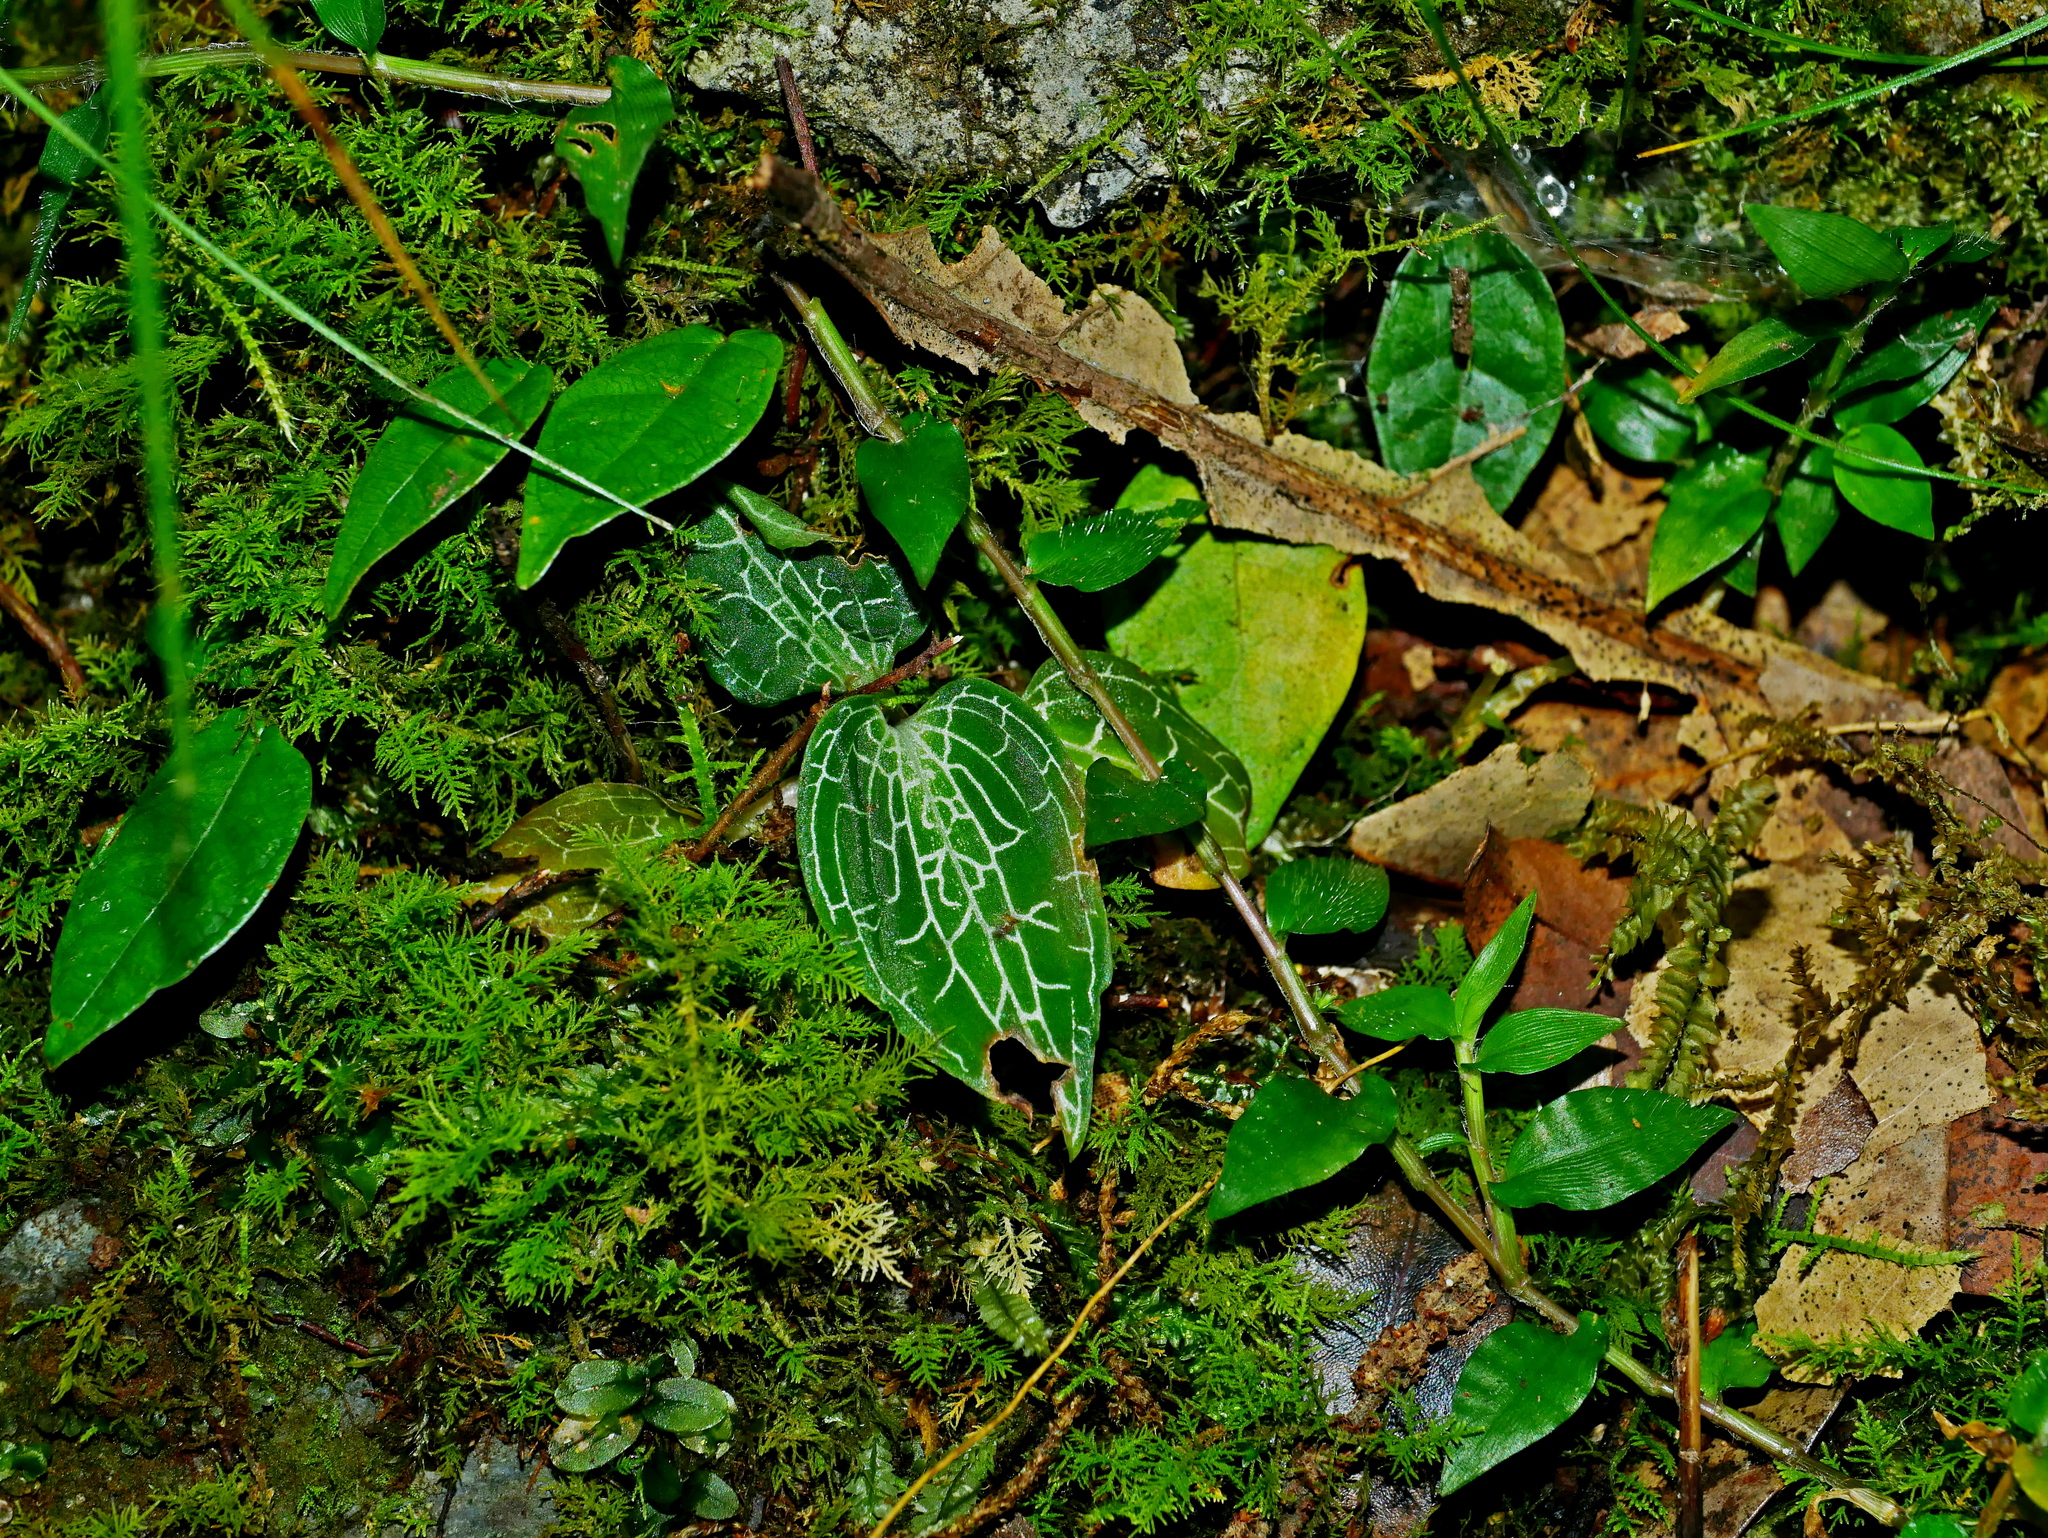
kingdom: Plantae
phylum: Tracheophyta
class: Liliopsida
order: Asparagales
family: Orchidaceae
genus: Goodyera
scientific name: Goodyera reticulata
